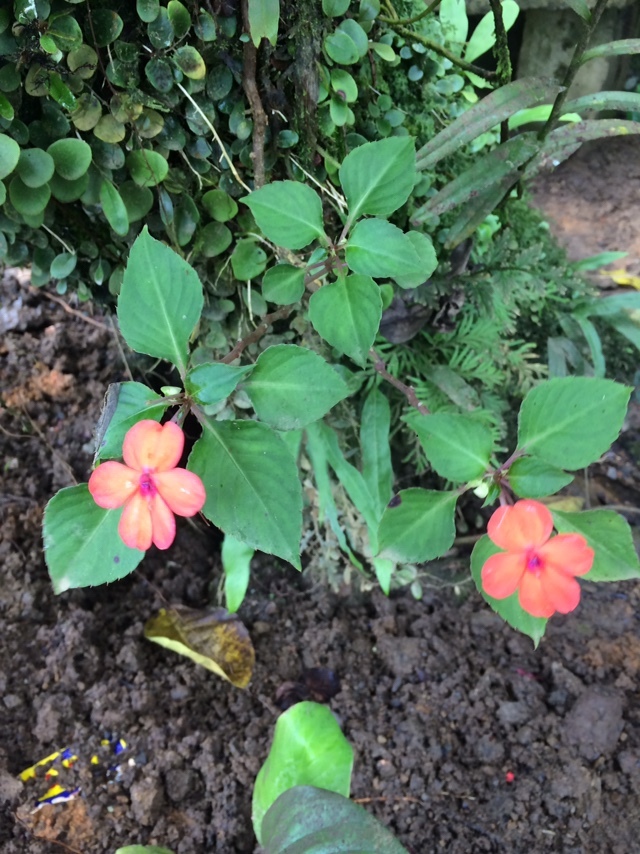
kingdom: Plantae
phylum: Tracheophyta
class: Magnoliopsida
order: Ericales
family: Balsaminaceae
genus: Impatiens
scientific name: Impatiens walleriana
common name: Buzzy lizzy
